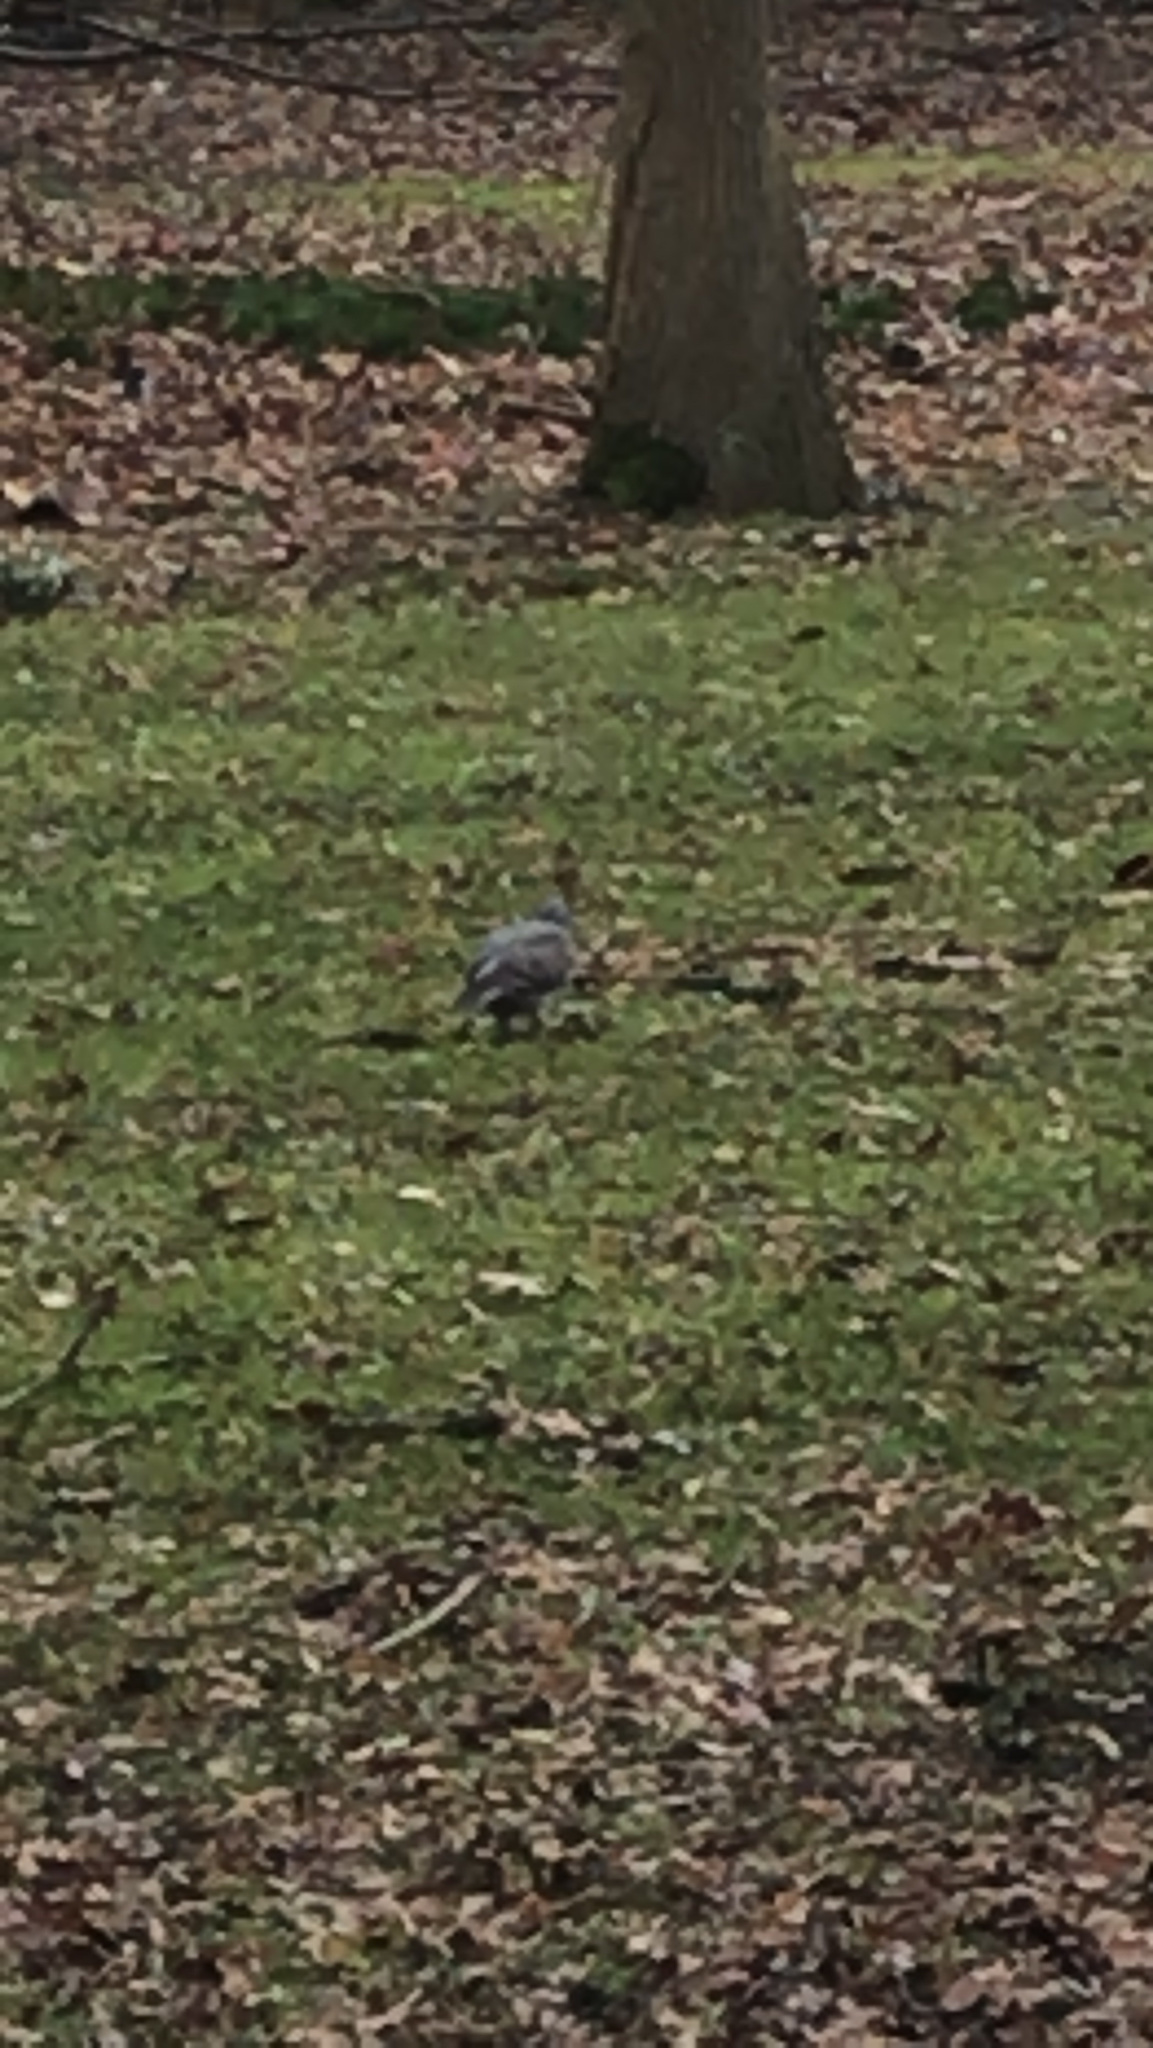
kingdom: Animalia
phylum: Chordata
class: Aves
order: Columbiformes
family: Columbidae
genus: Columba
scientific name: Columba palumbus
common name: Common wood pigeon
